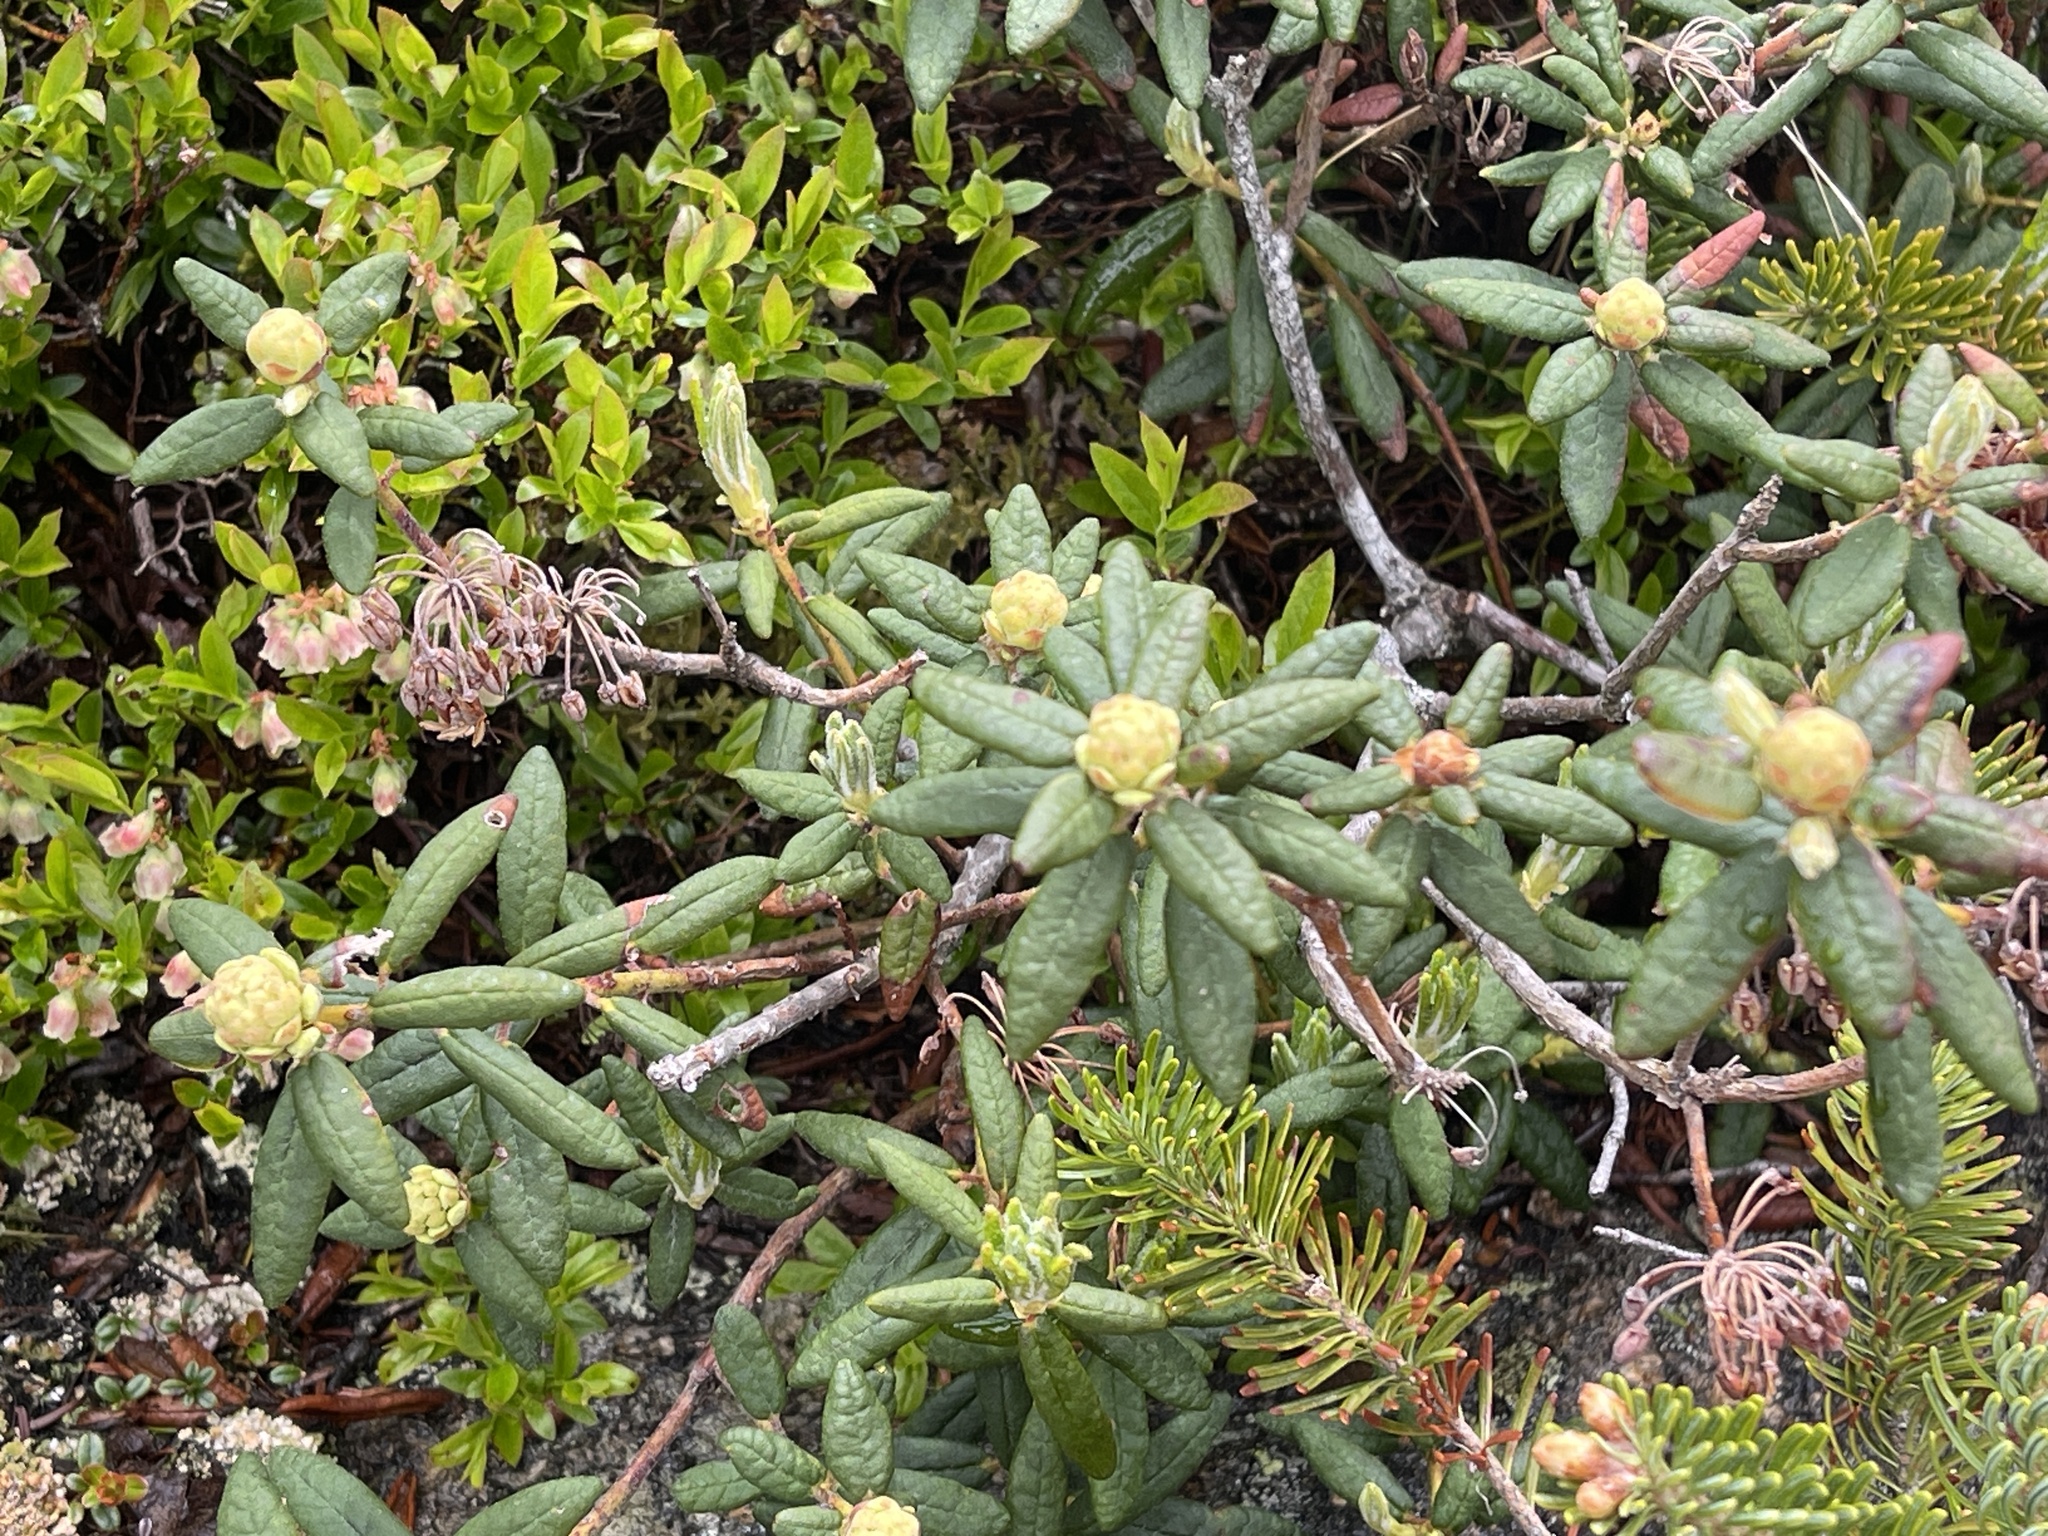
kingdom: Plantae
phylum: Tracheophyta
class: Magnoliopsida
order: Ericales
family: Ericaceae
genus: Rhododendron
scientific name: Rhododendron groenlandicum
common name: Bog labrador tea
